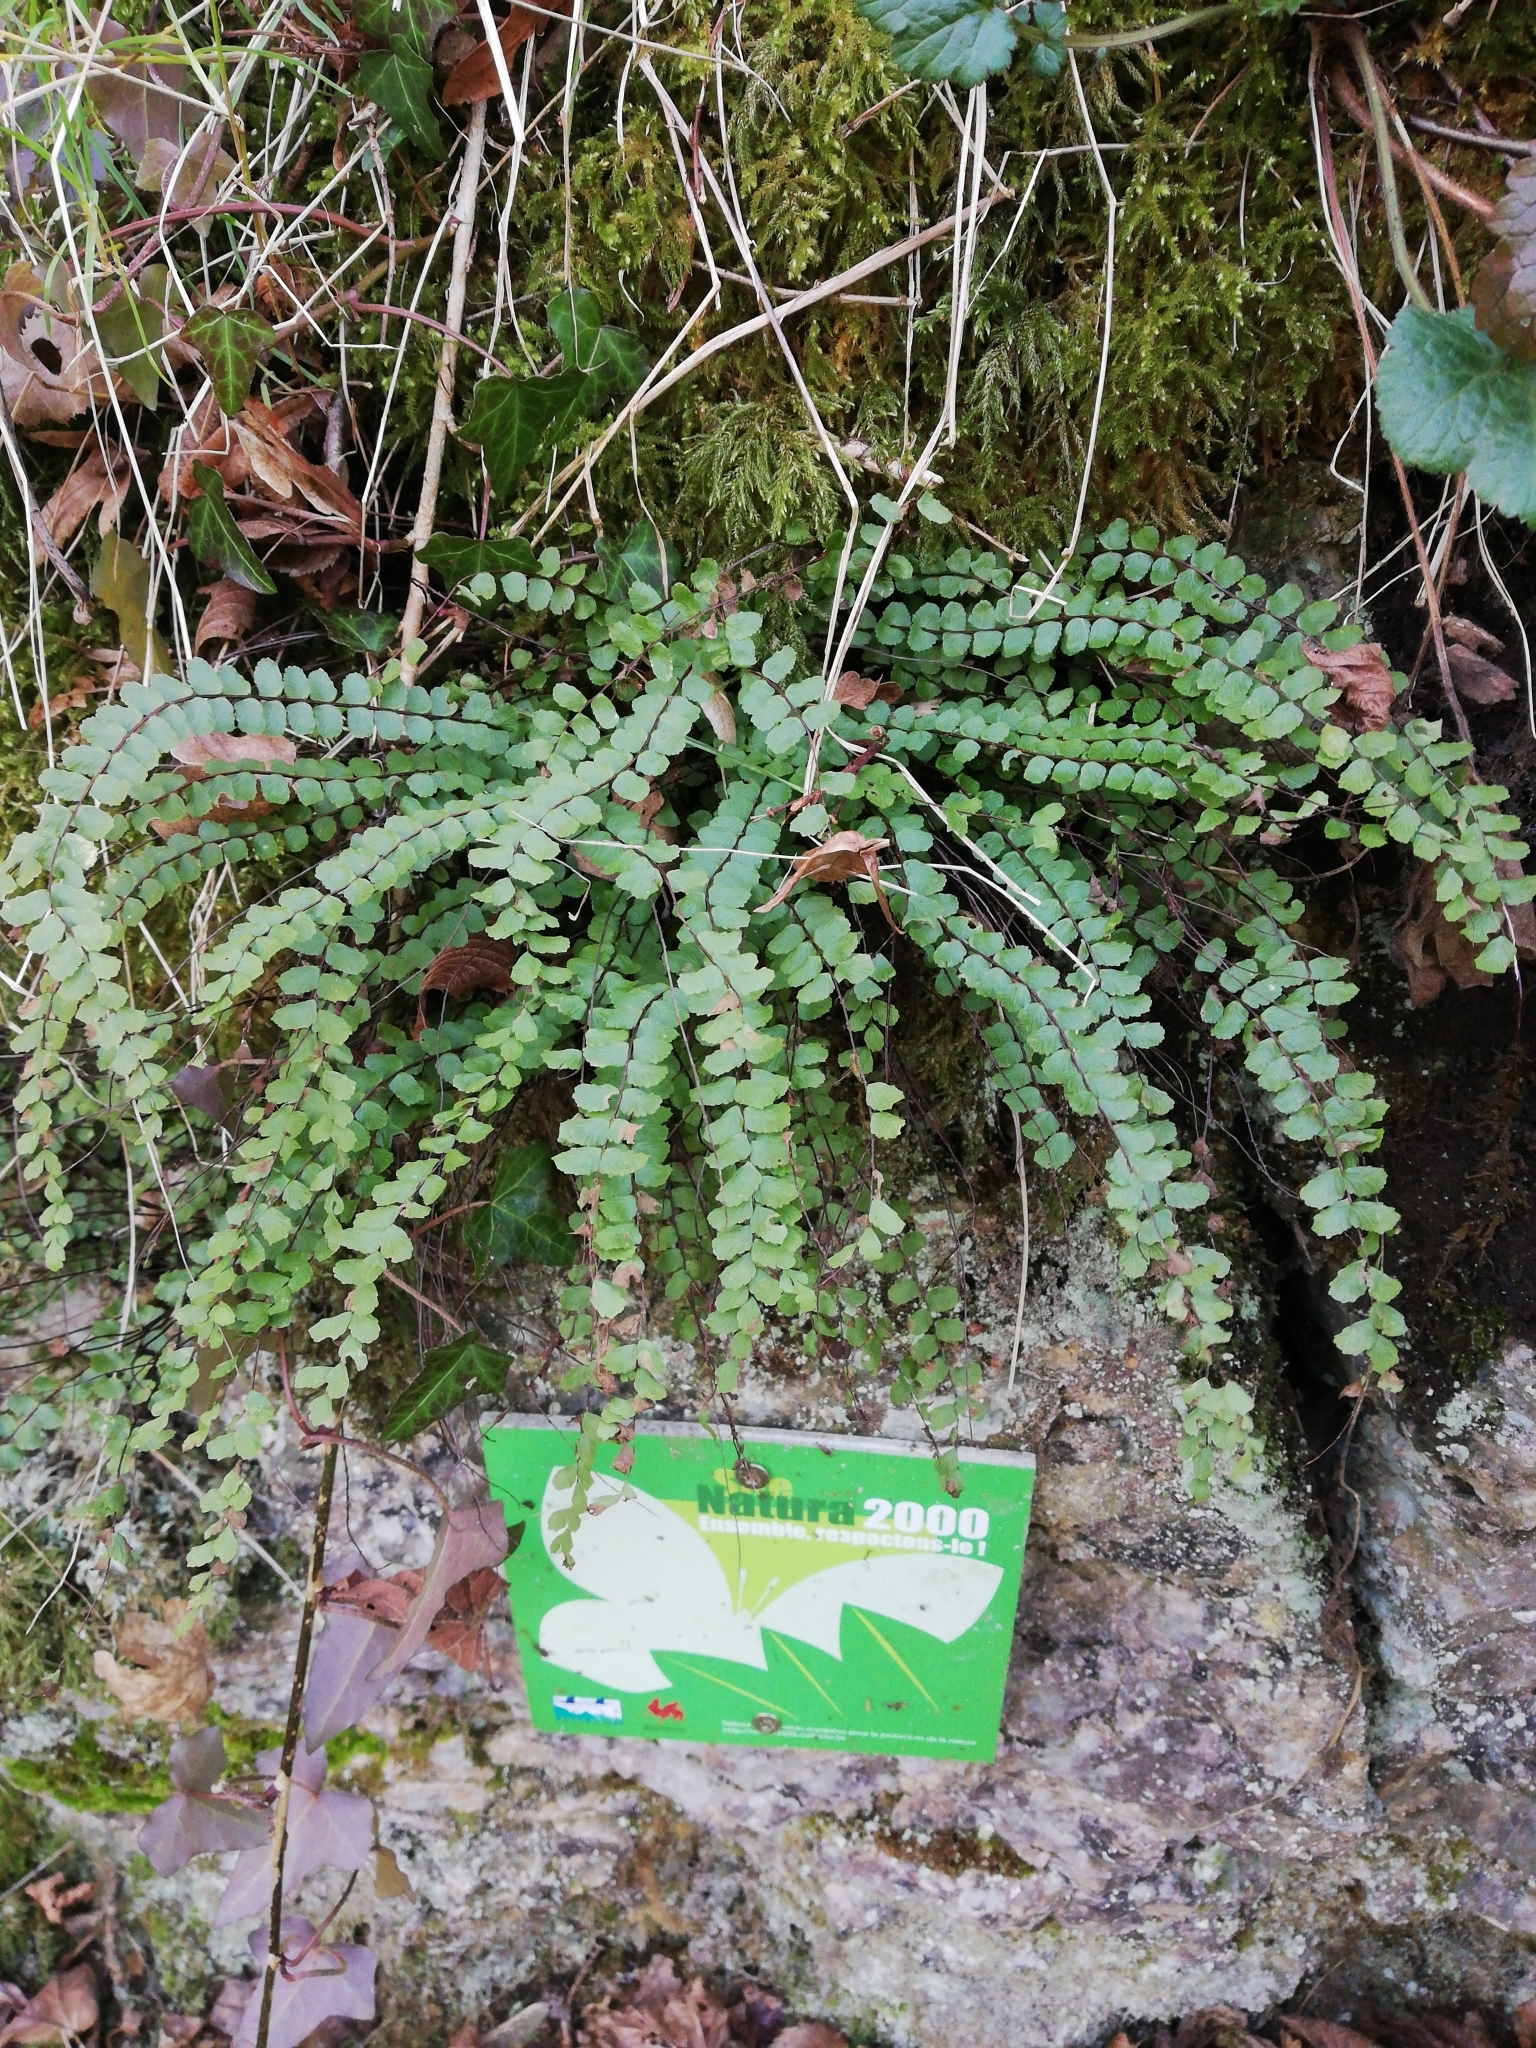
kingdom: Plantae
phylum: Tracheophyta
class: Polypodiopsida
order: Polypodiales
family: Aspleniaceae
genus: Asplenium
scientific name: Asplenium trichomanes
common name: Maidenhair spleenwort
